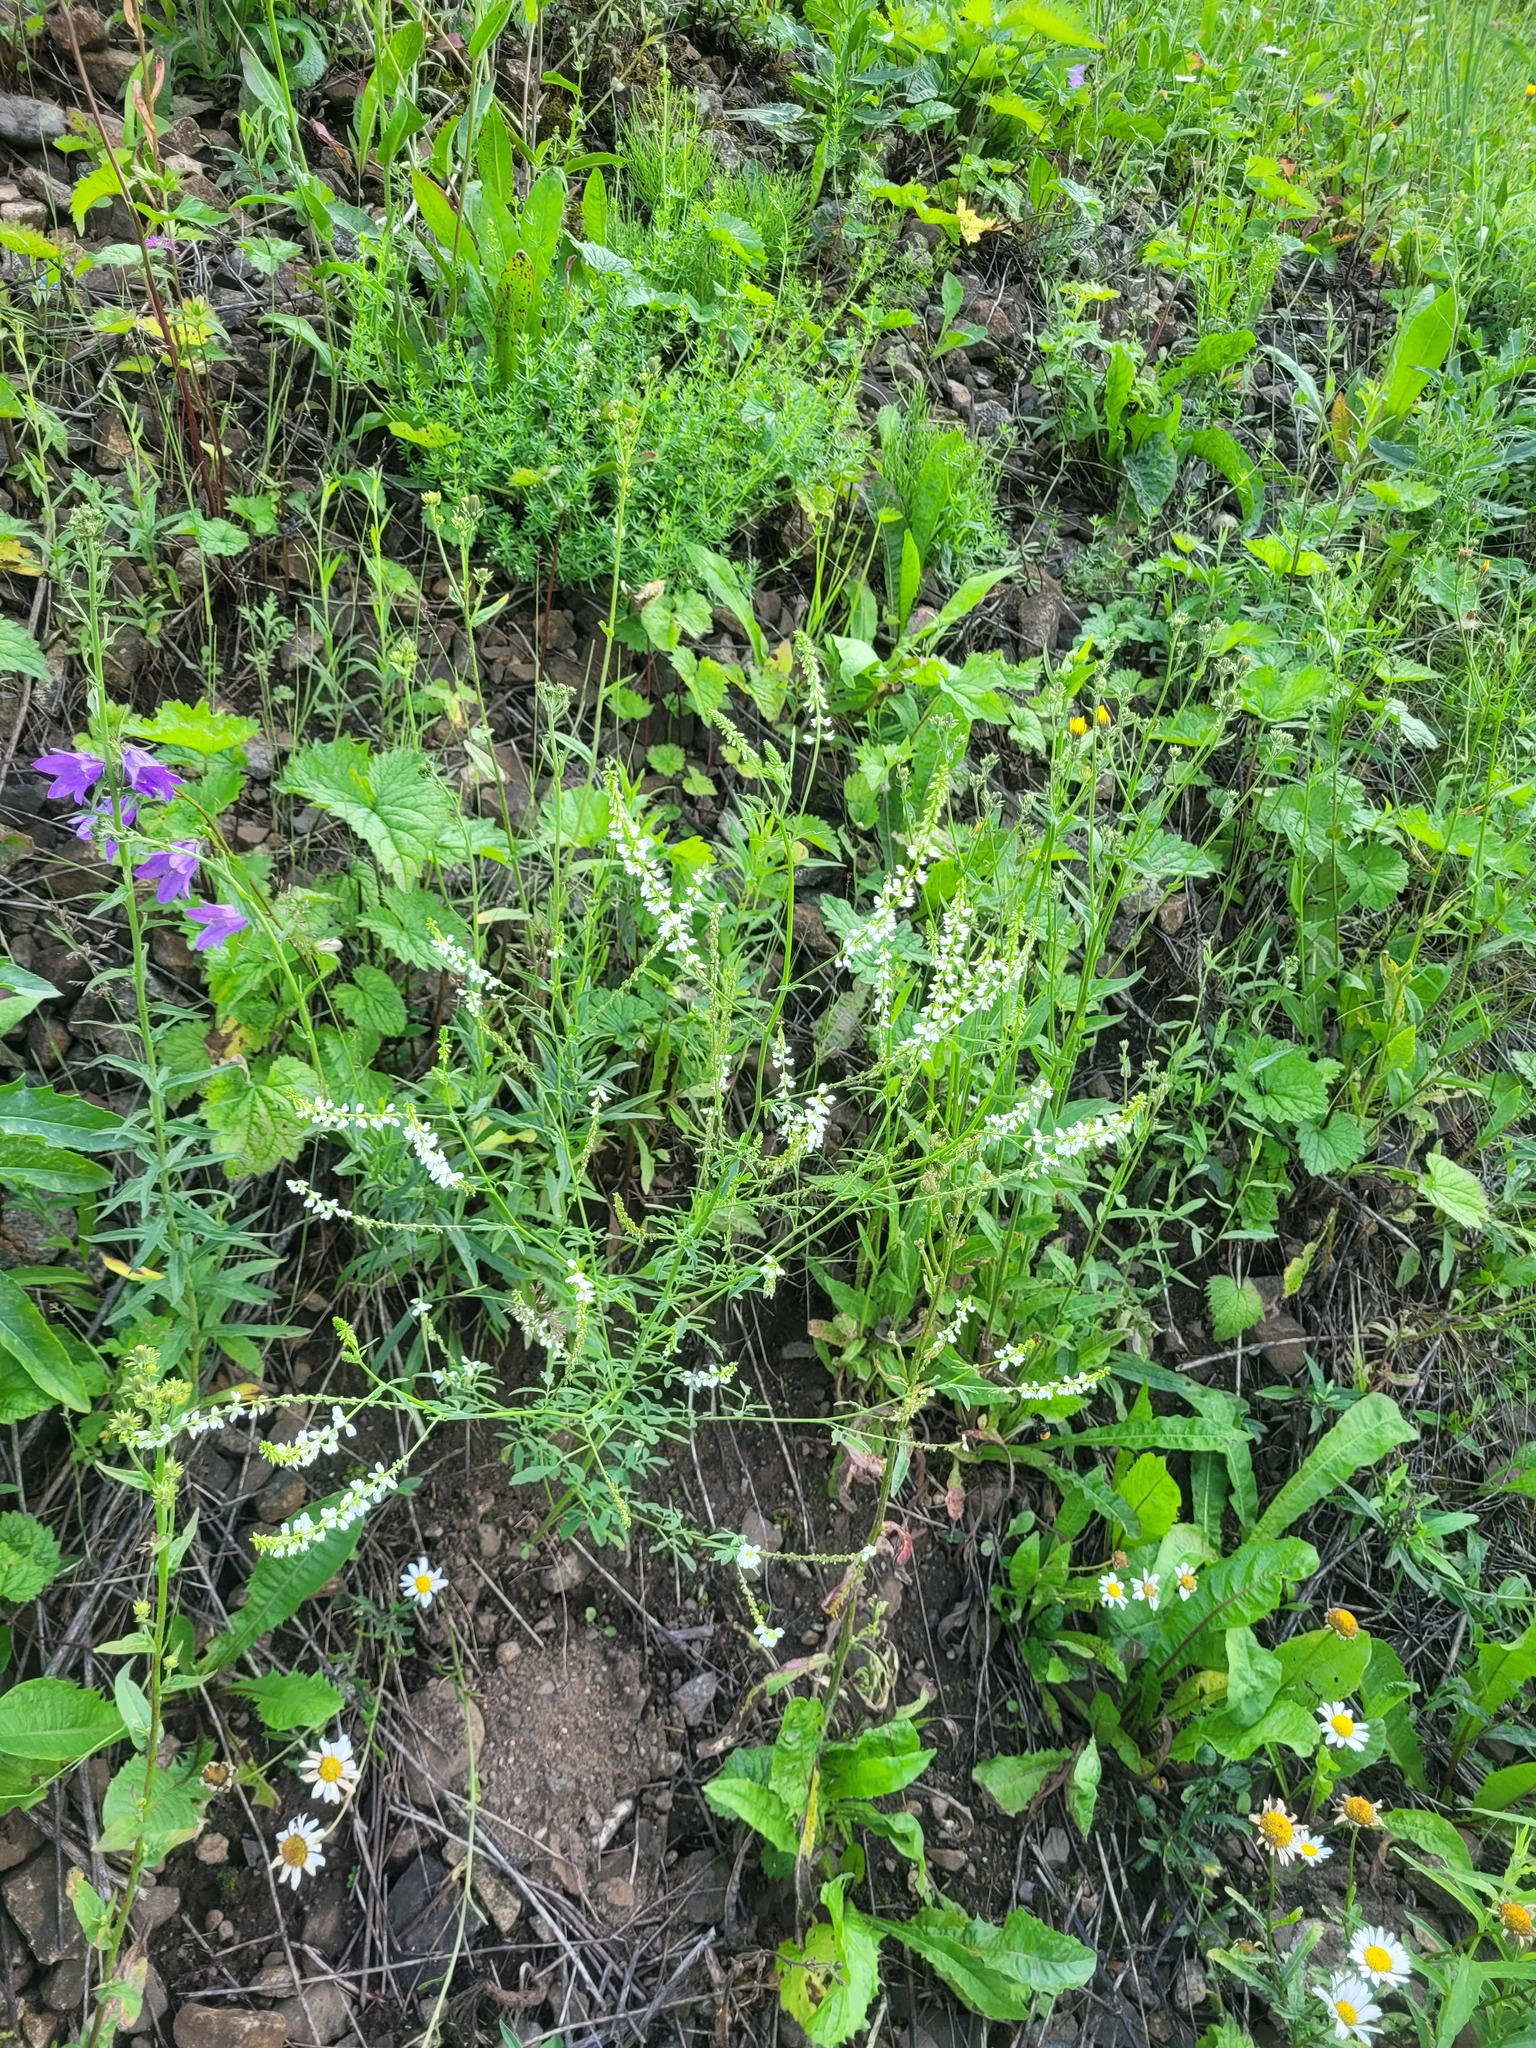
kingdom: Plantae
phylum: Tracheophyta
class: Magnoliopsida
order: Fabales
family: Fabaceae
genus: Melilotus
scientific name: Melilotus albus
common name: White melilot
